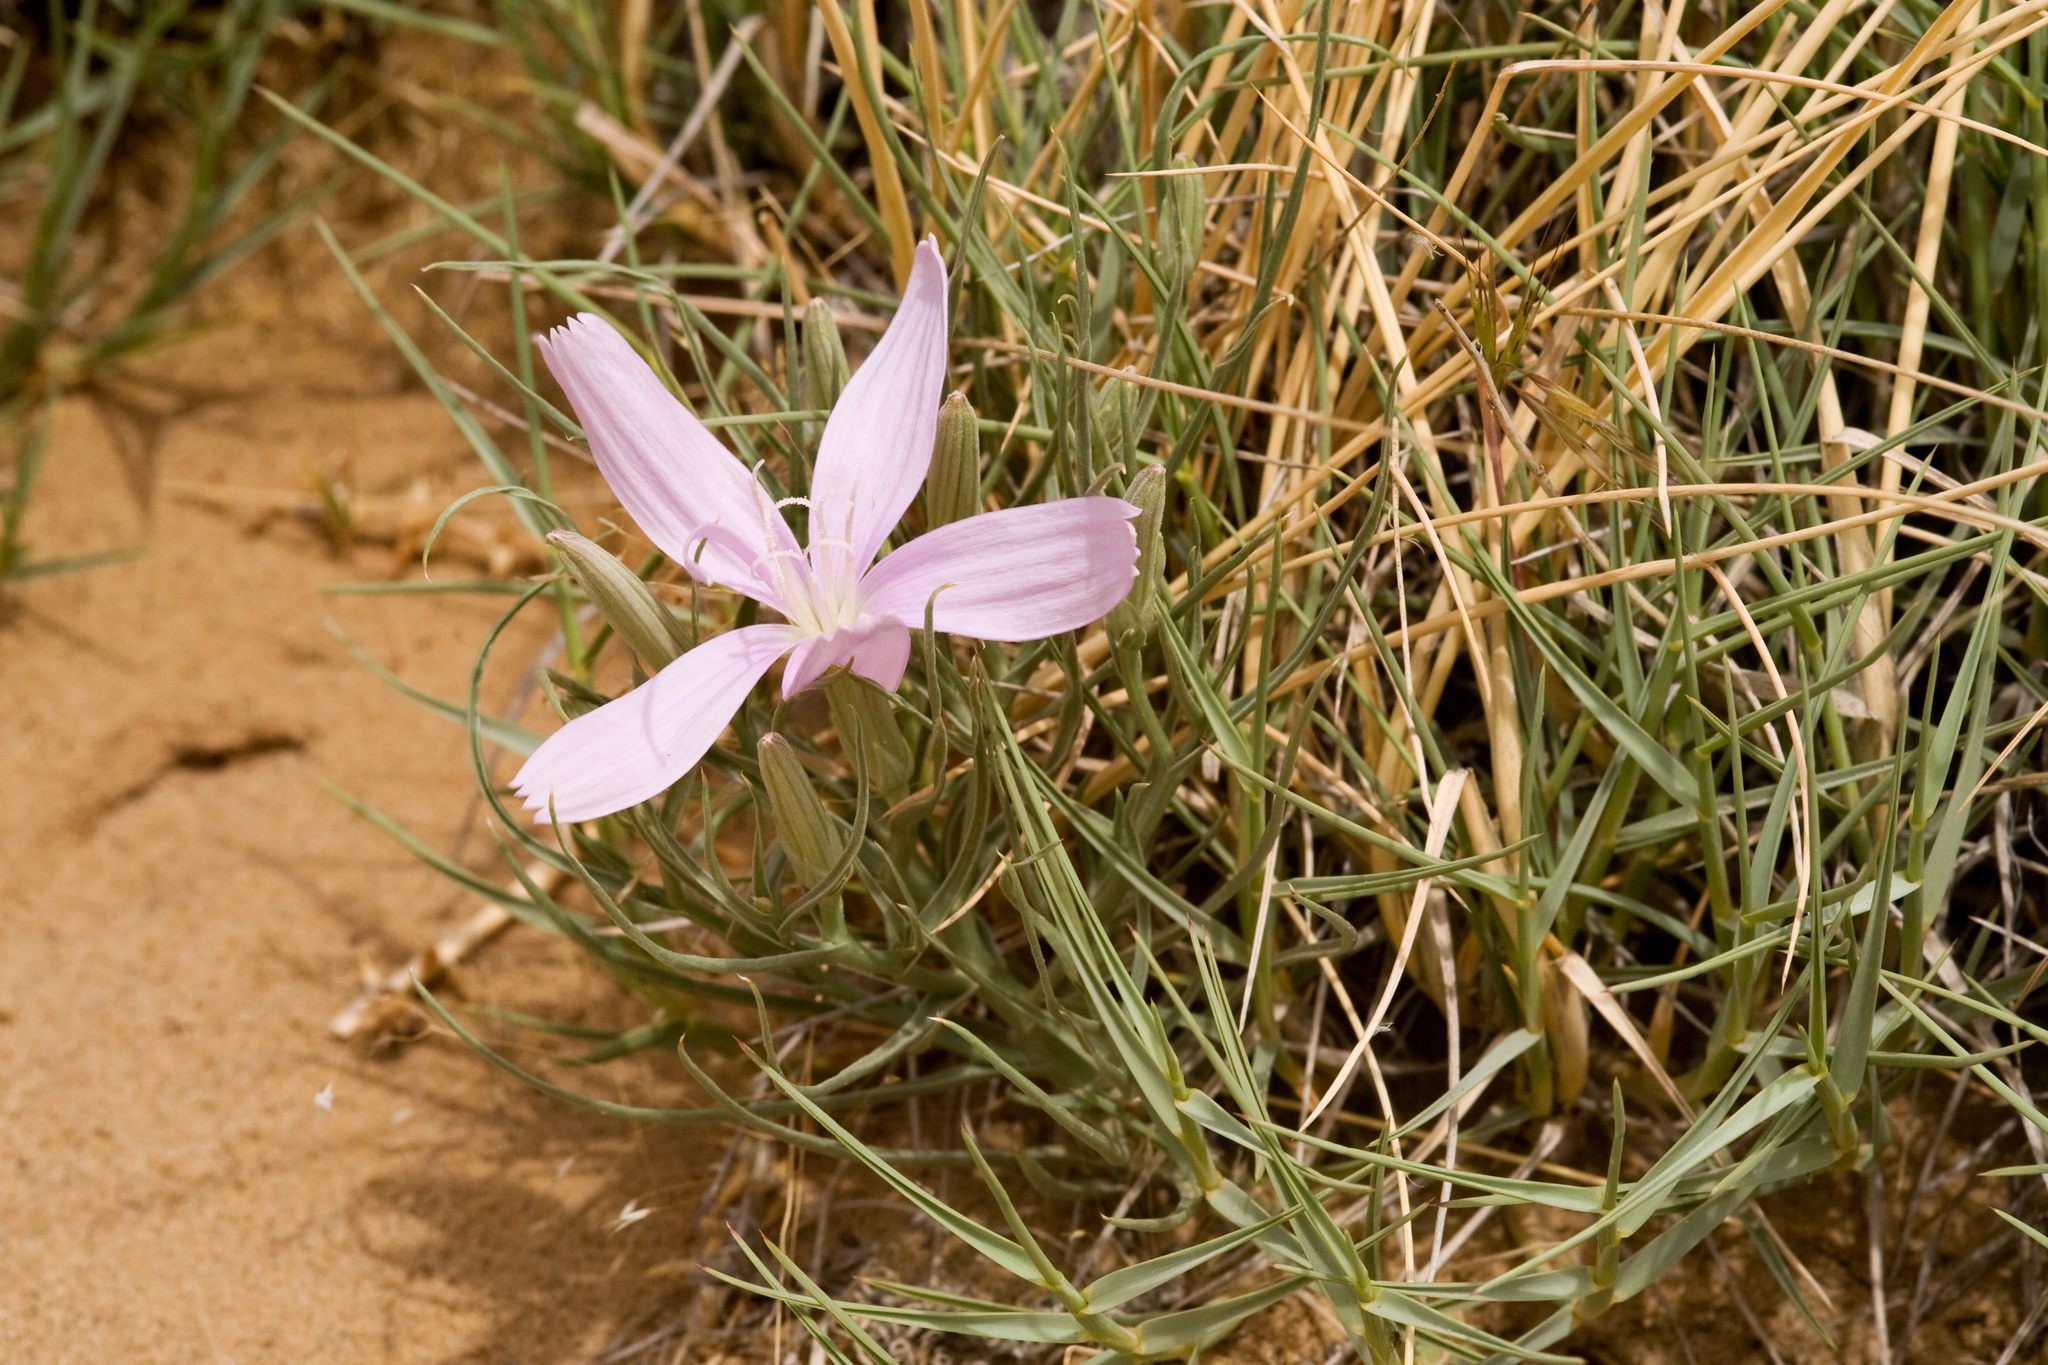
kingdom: Plantae
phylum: Tracheophyta
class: Magnoliopsida
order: Asterales
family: Asteraceae
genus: Lygodesmia
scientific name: Lygodesmia grandiflora
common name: Showy rush-pink
